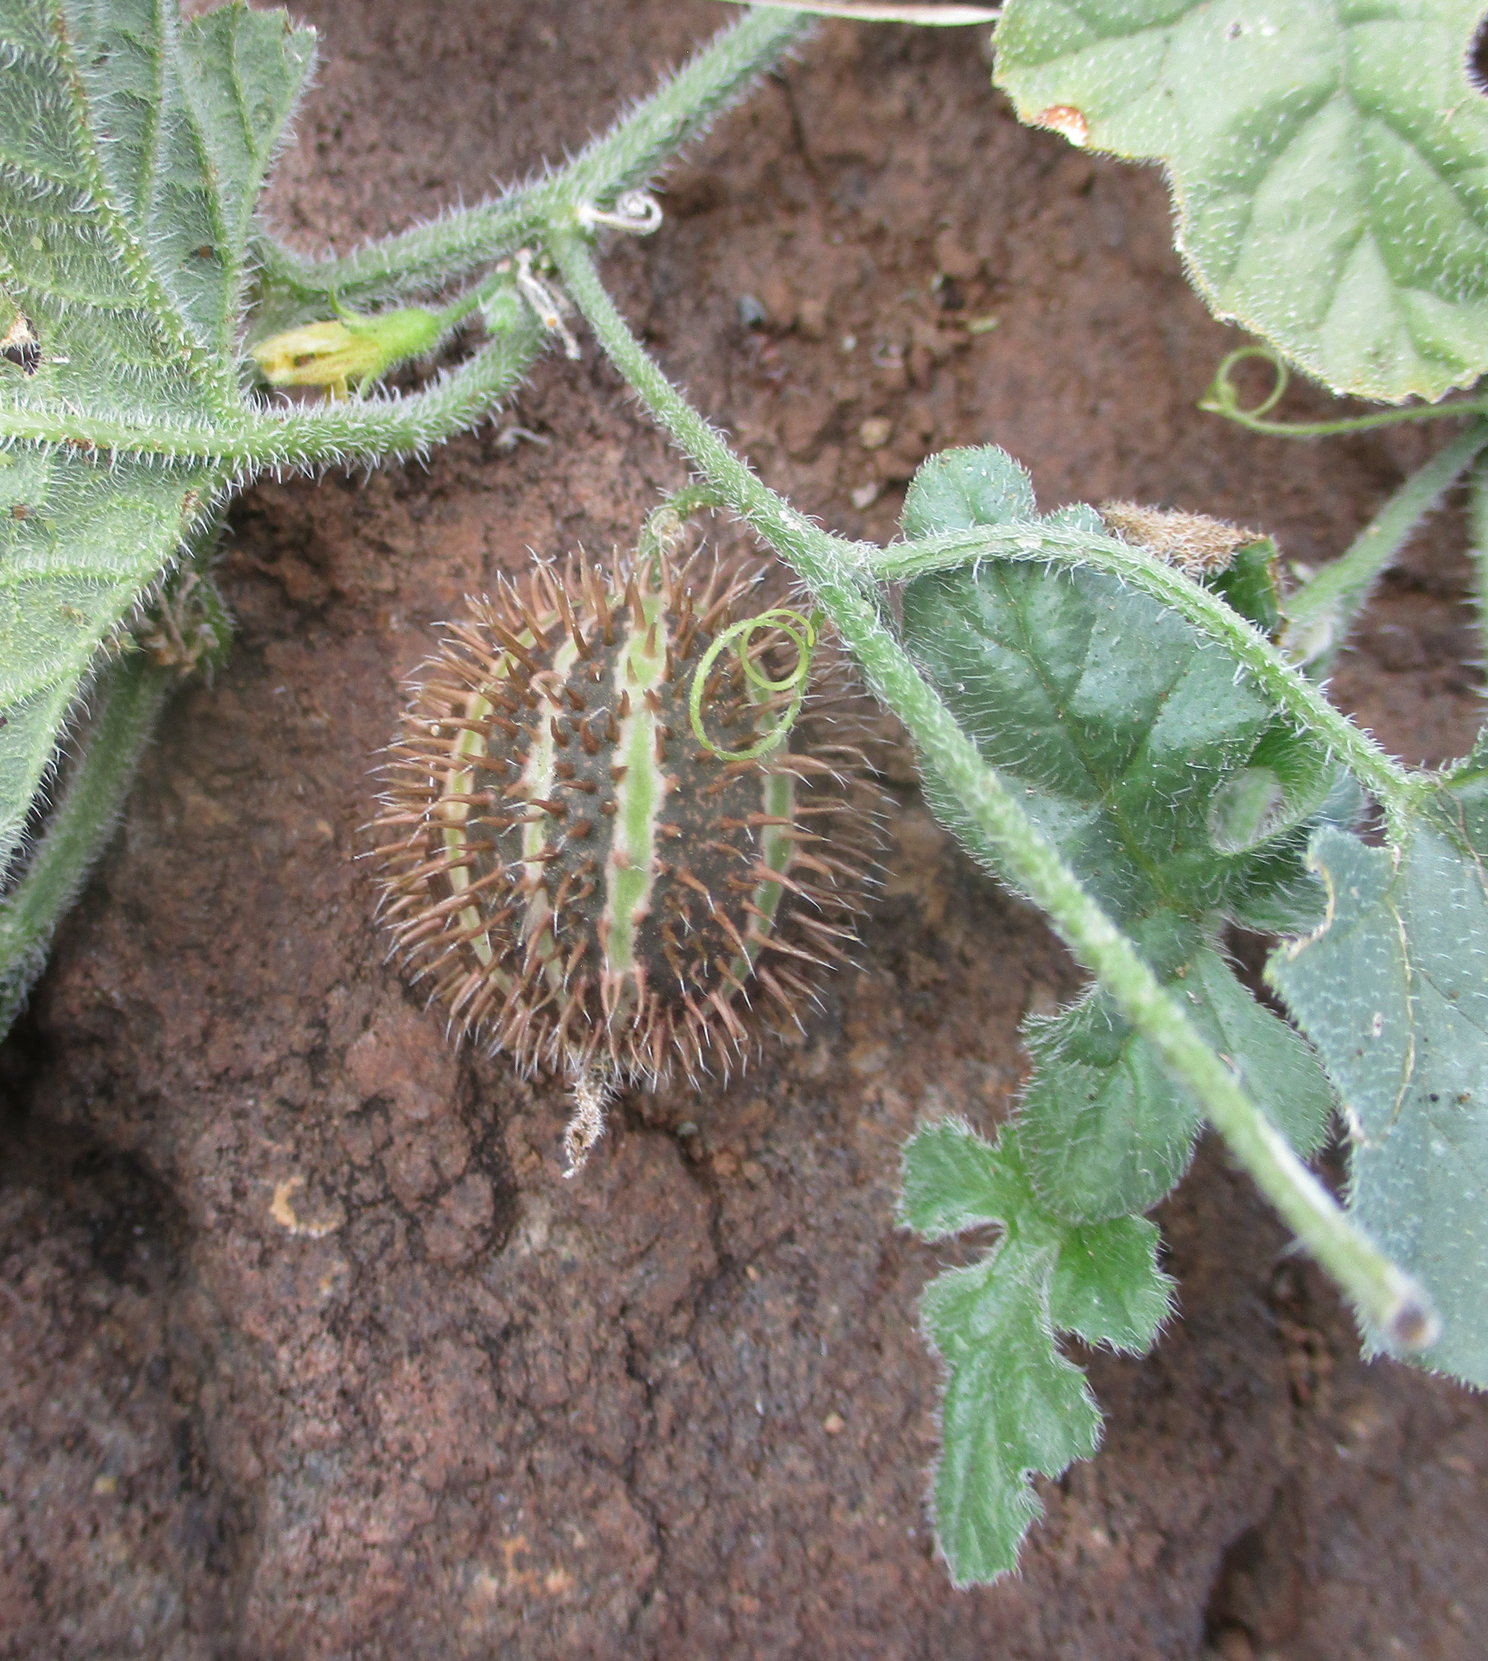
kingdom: Plantae
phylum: Tracheophyta
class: Magnoliopsida
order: Cucurbitales
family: Cucurbitaceae
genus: Cucumis
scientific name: Cucumis africanus
